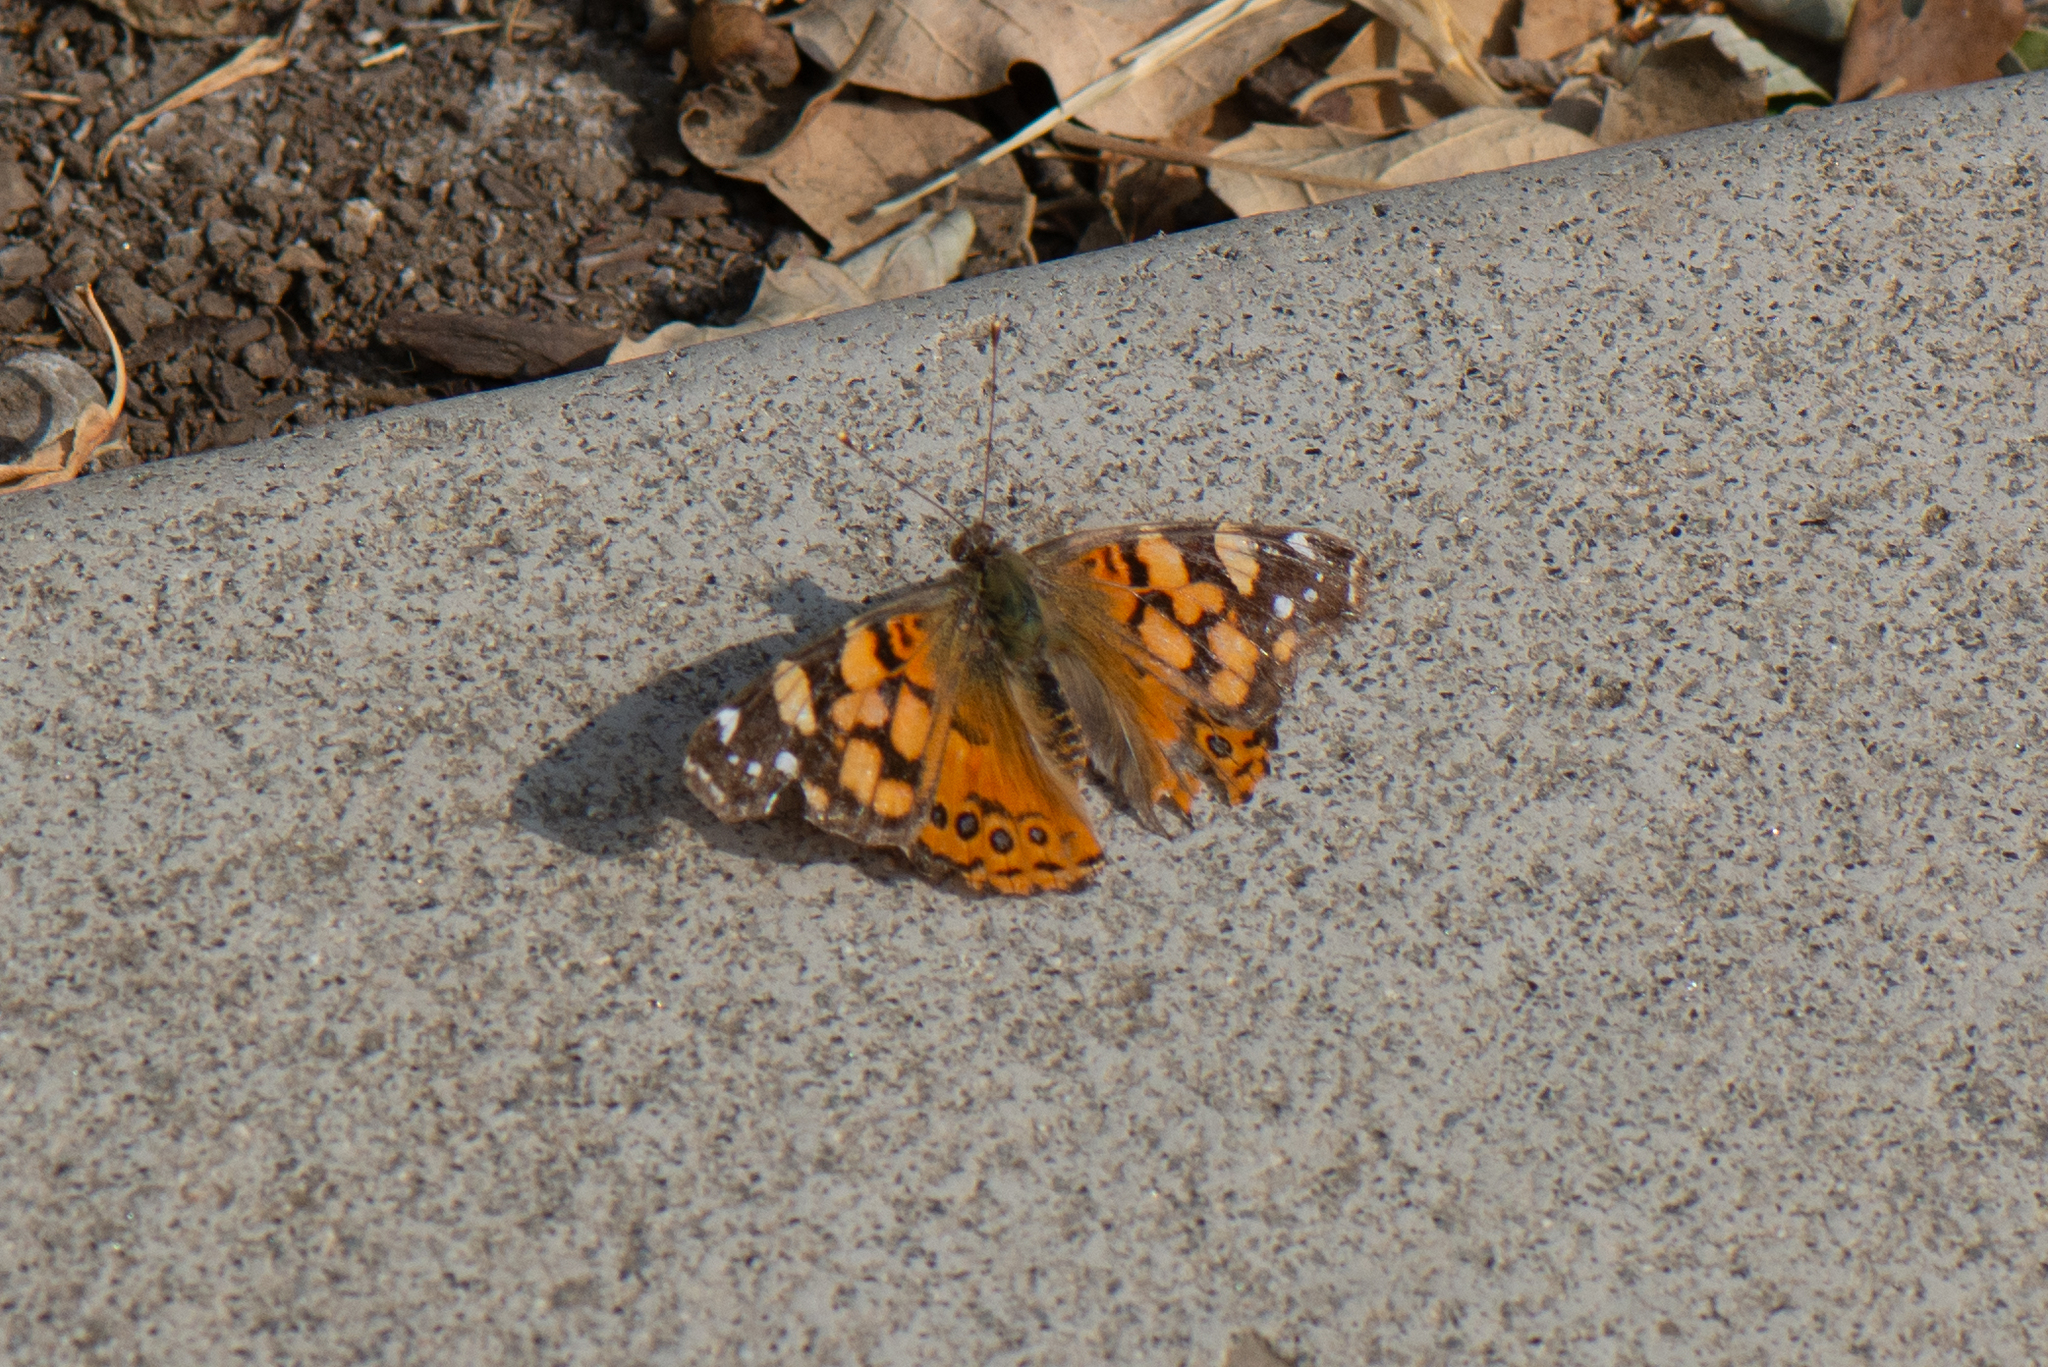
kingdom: Animalia
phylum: Arthropoda
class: Insecta
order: Lepidoptera
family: Nymphalidae
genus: Vanessa
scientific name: Vanessa annabella
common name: West coast lady
